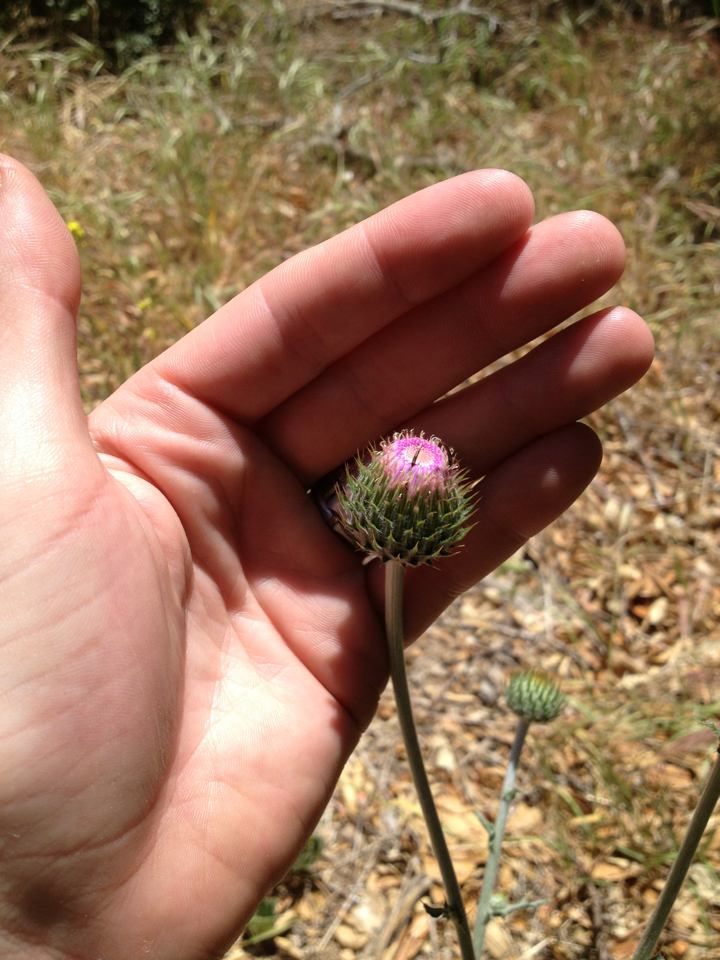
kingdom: Plantae
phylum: Tracheophyta
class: Magnoliopsida
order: Asterales
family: Asteraceae
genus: Cirsium
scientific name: Cirsium occidentale
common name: Western thistle
